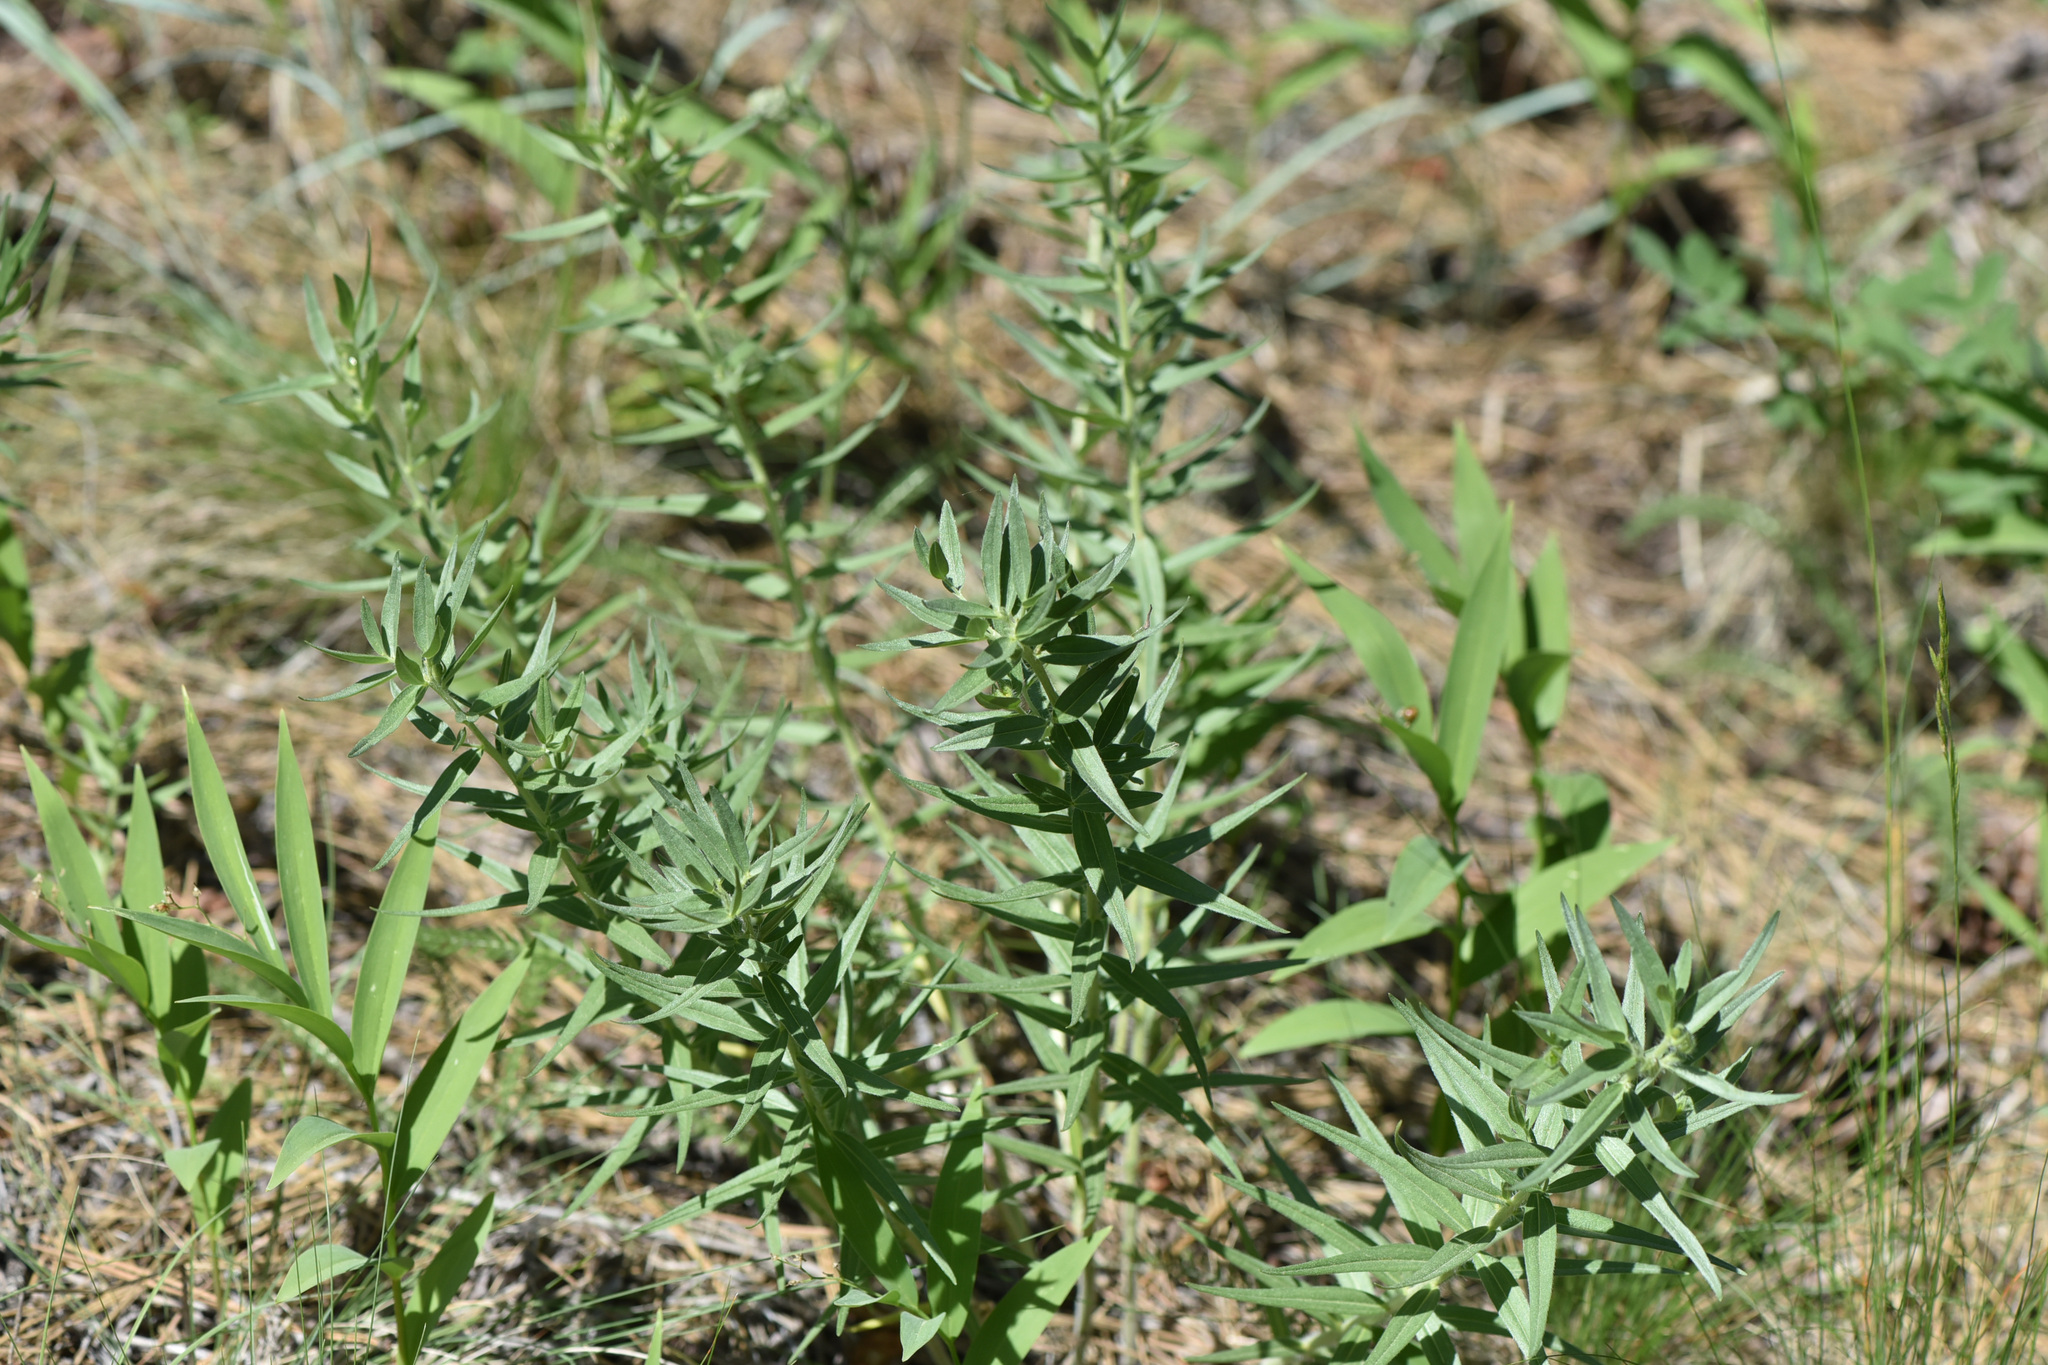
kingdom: Plantae
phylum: Tracheophyta
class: Magnoliopsida
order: Boraginales
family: Boraginaceae
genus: Lithospermum
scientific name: Lithospermum ruderale
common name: Western gromwell
